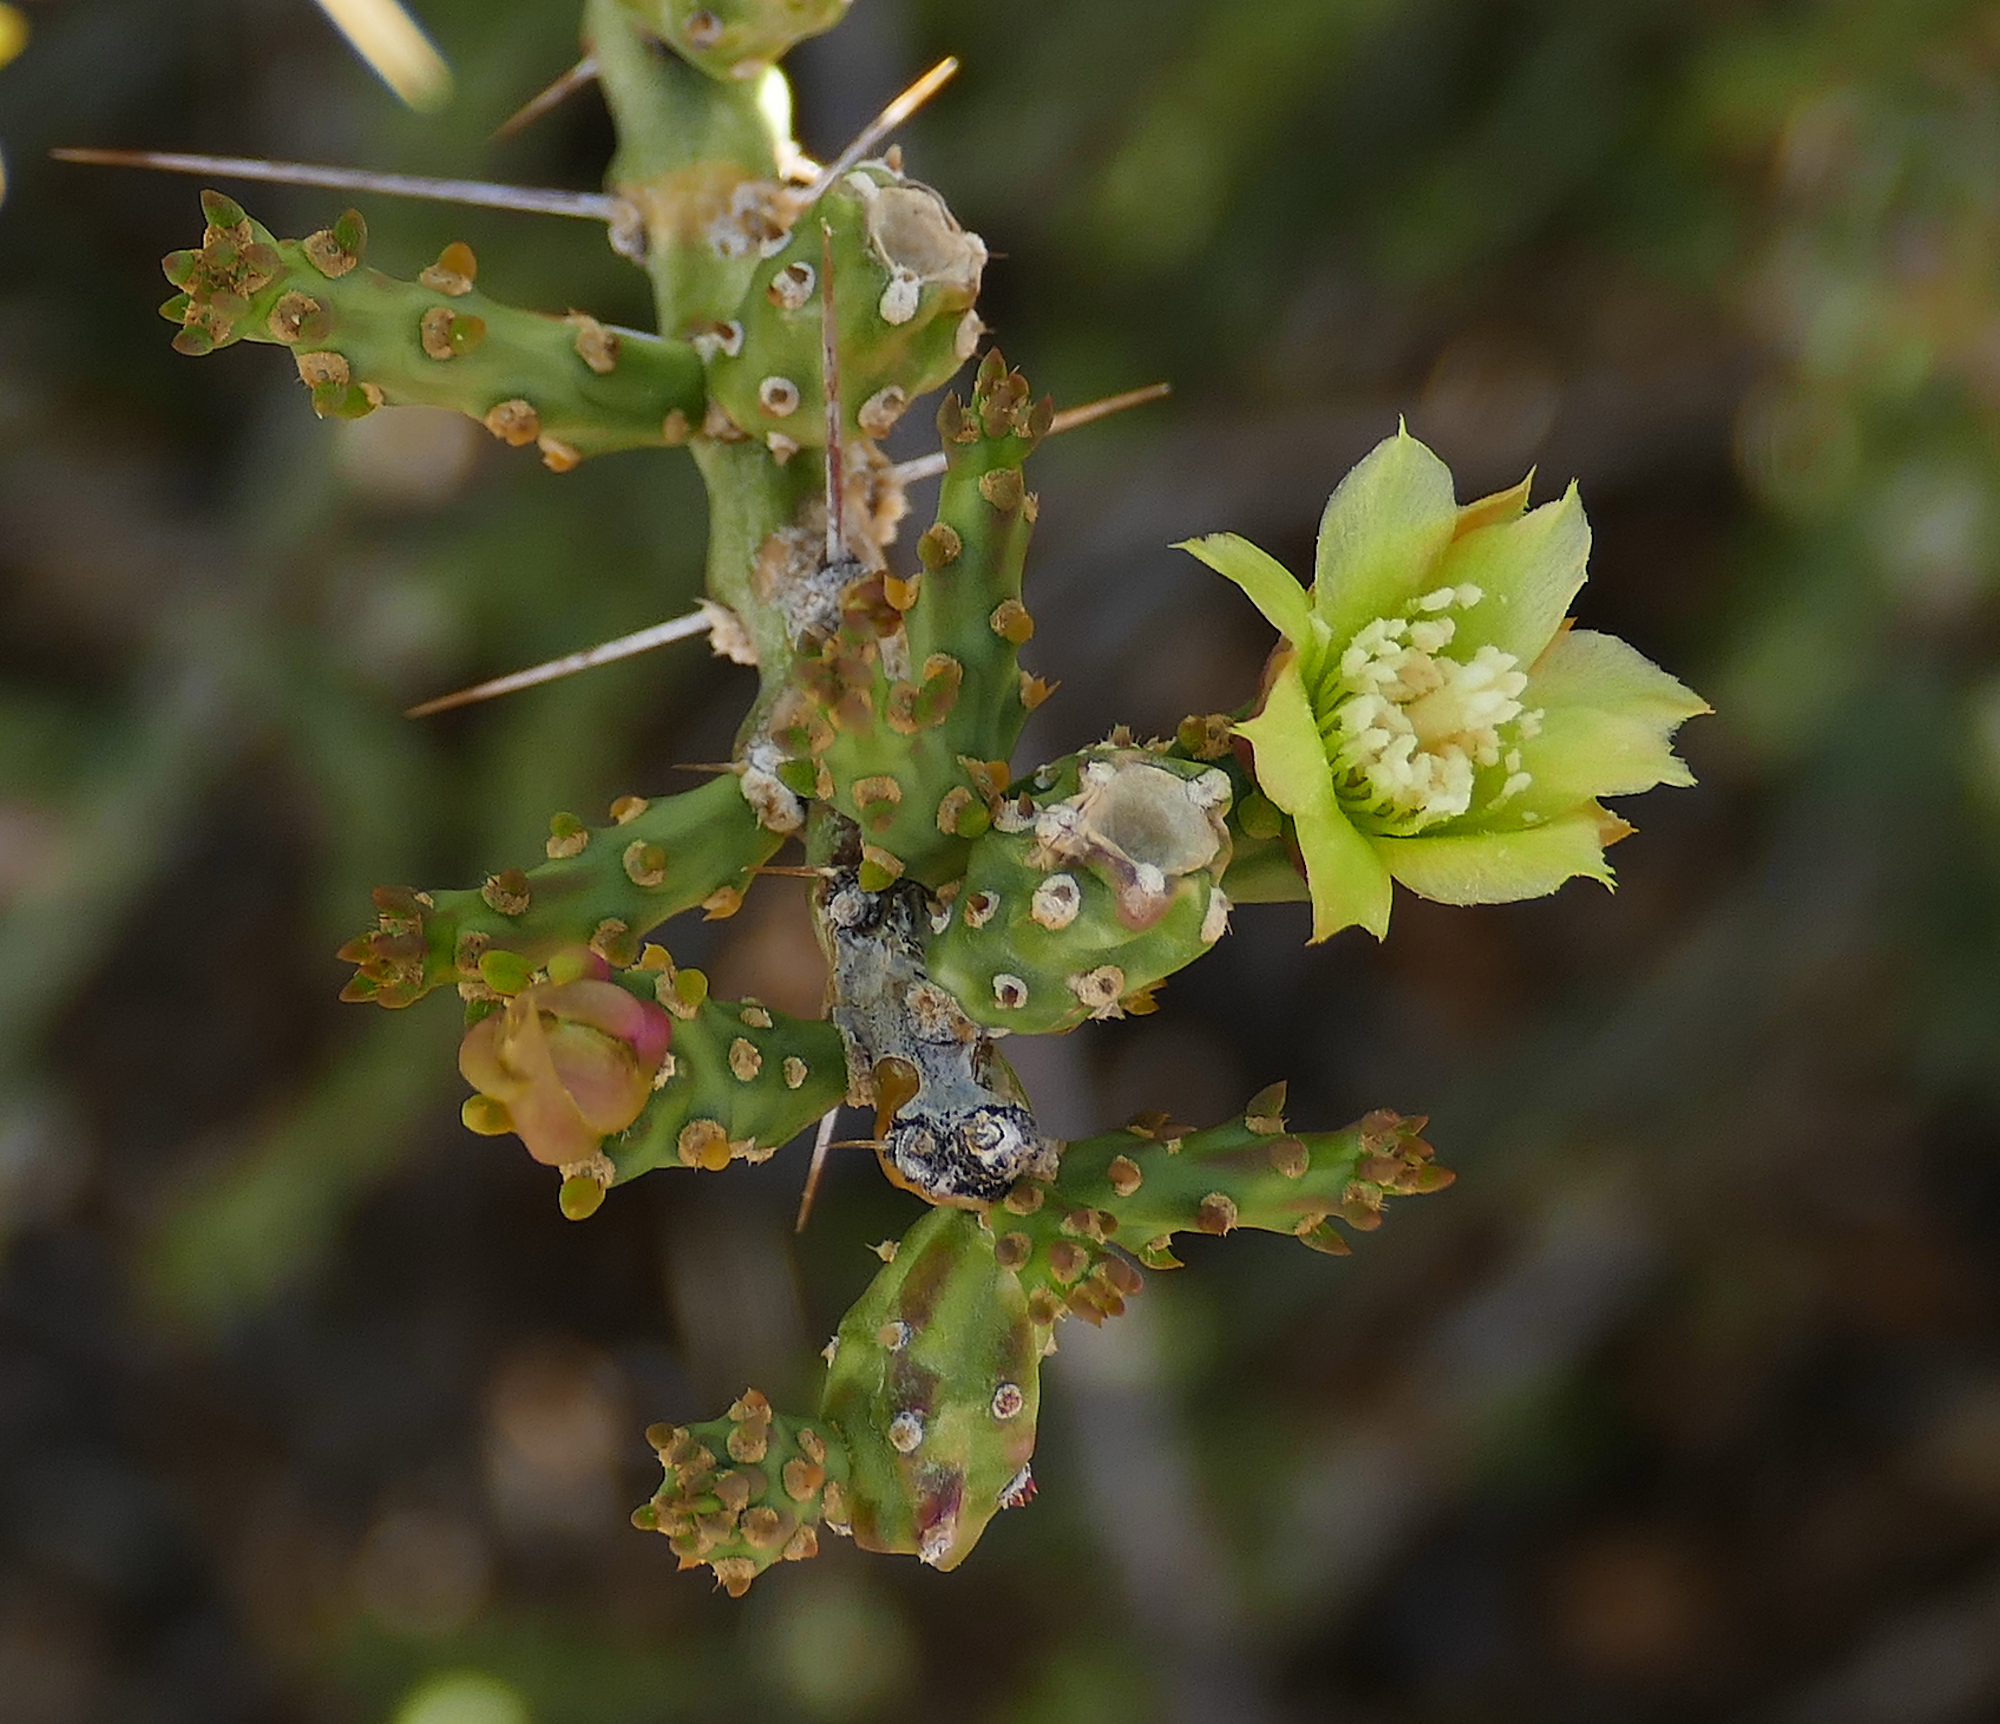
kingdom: Plantae
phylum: Tracheophyta
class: Magnoliopsida
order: Caryophyllales
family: Cactaceae
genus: Cylindropuntia
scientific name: Cylindropuntia leptocaulis
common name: Christmas cactus
